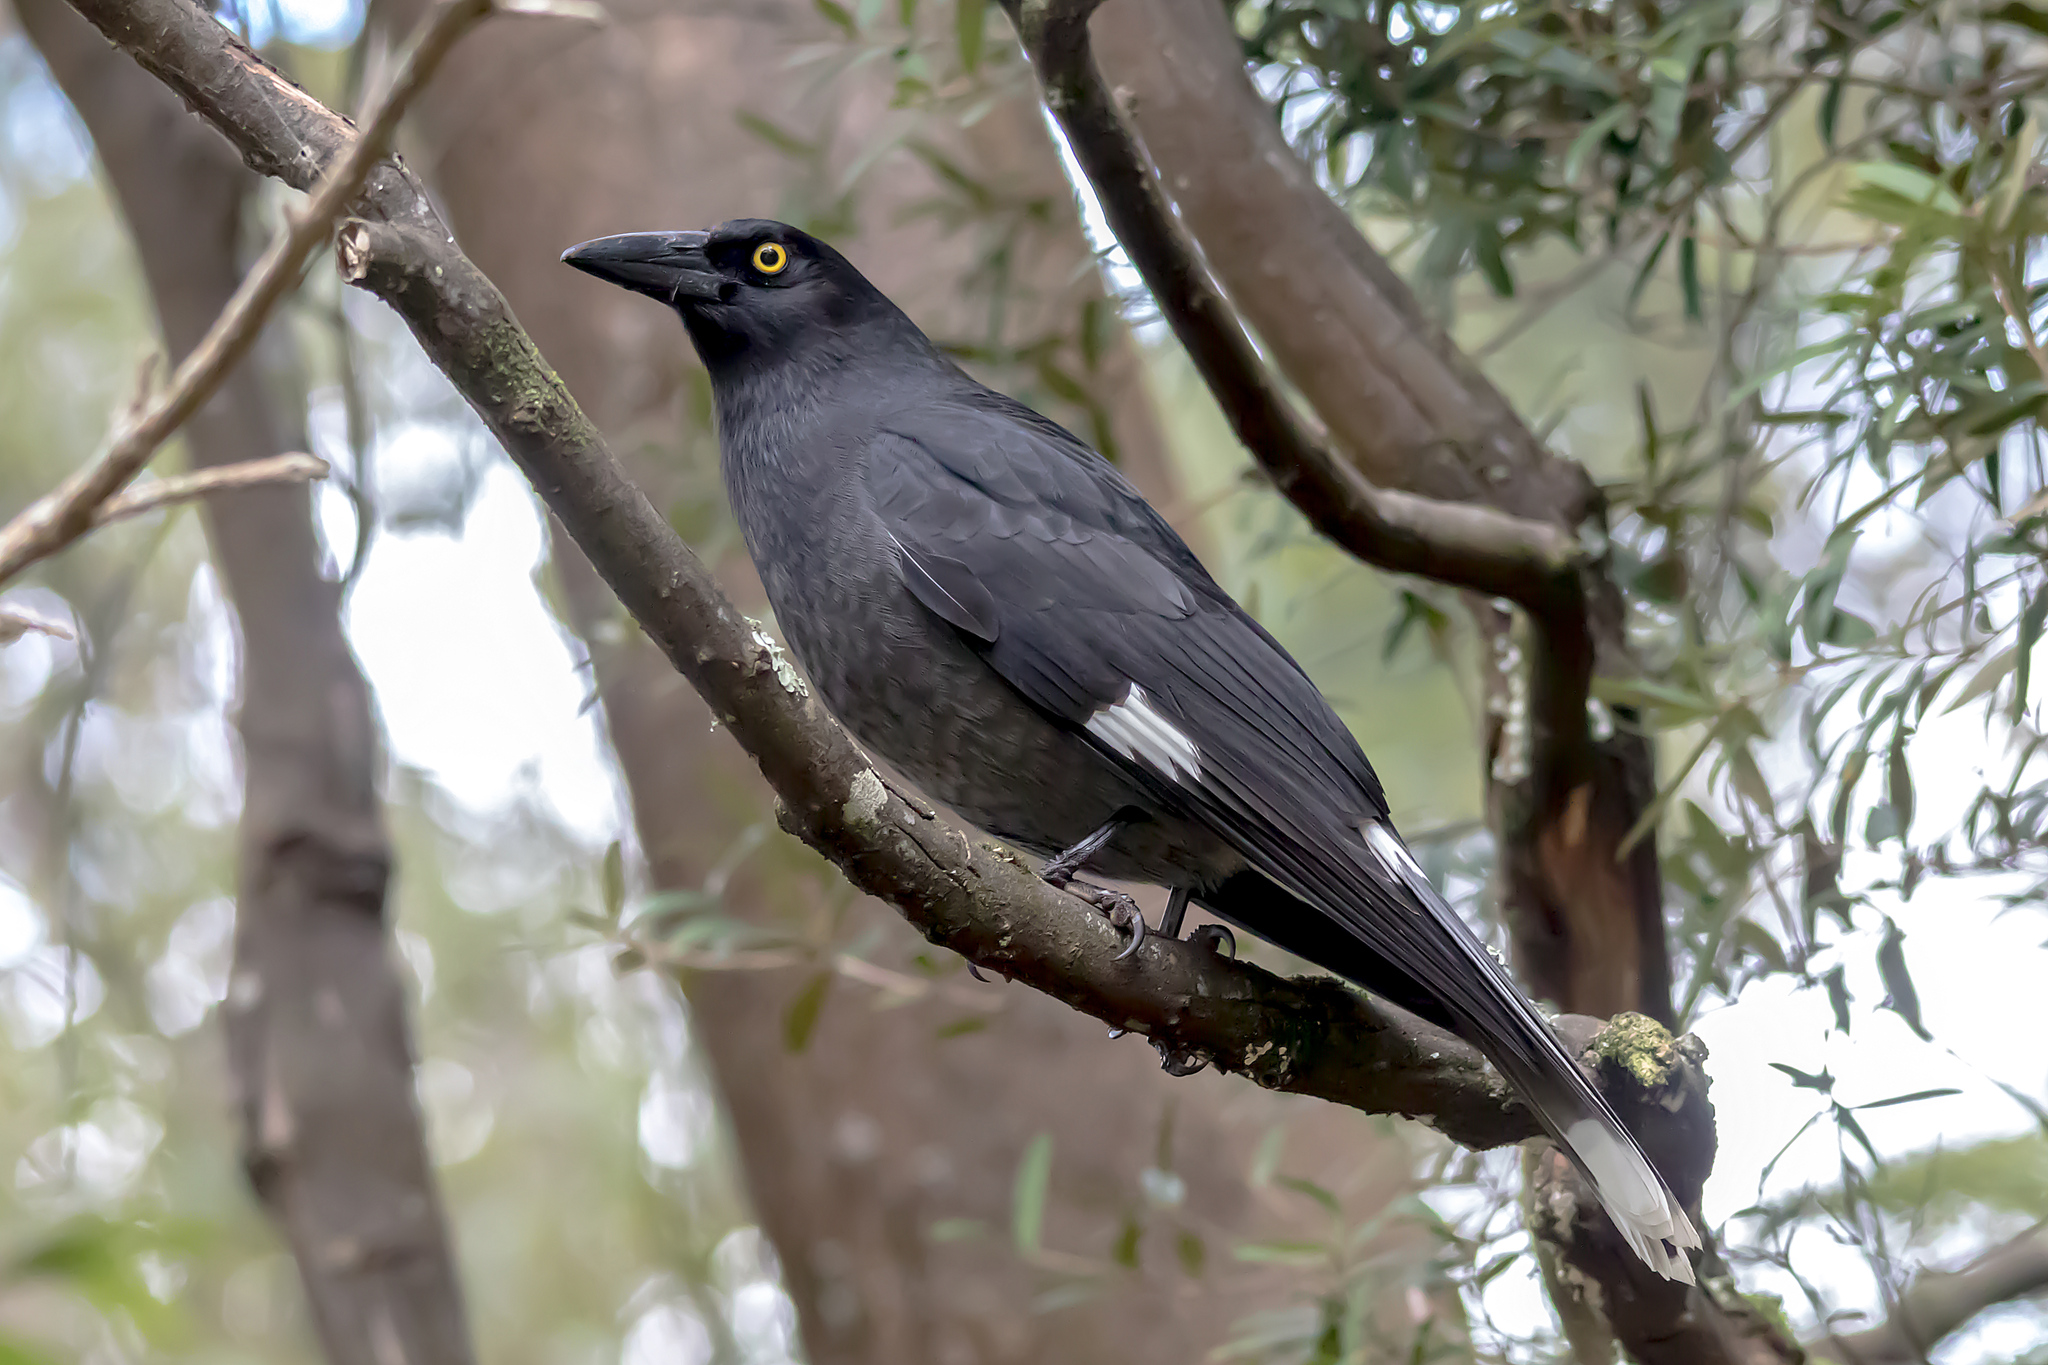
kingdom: Animalia
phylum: Chordata
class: Aves
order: Passeriformes
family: Cracticidae
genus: Strepera
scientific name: Strepera graculina
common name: Pied currawong
